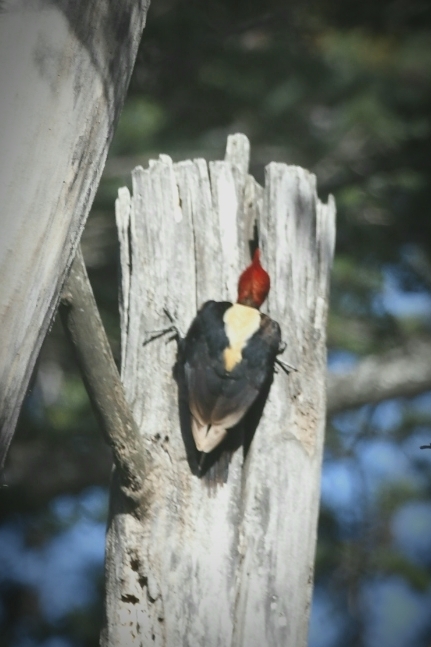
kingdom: Animalia
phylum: Chordata
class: Aves
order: Piciformes
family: Picidae
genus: Campephilus
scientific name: Campephilus leucopogon
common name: Cream-backed woodpecker
